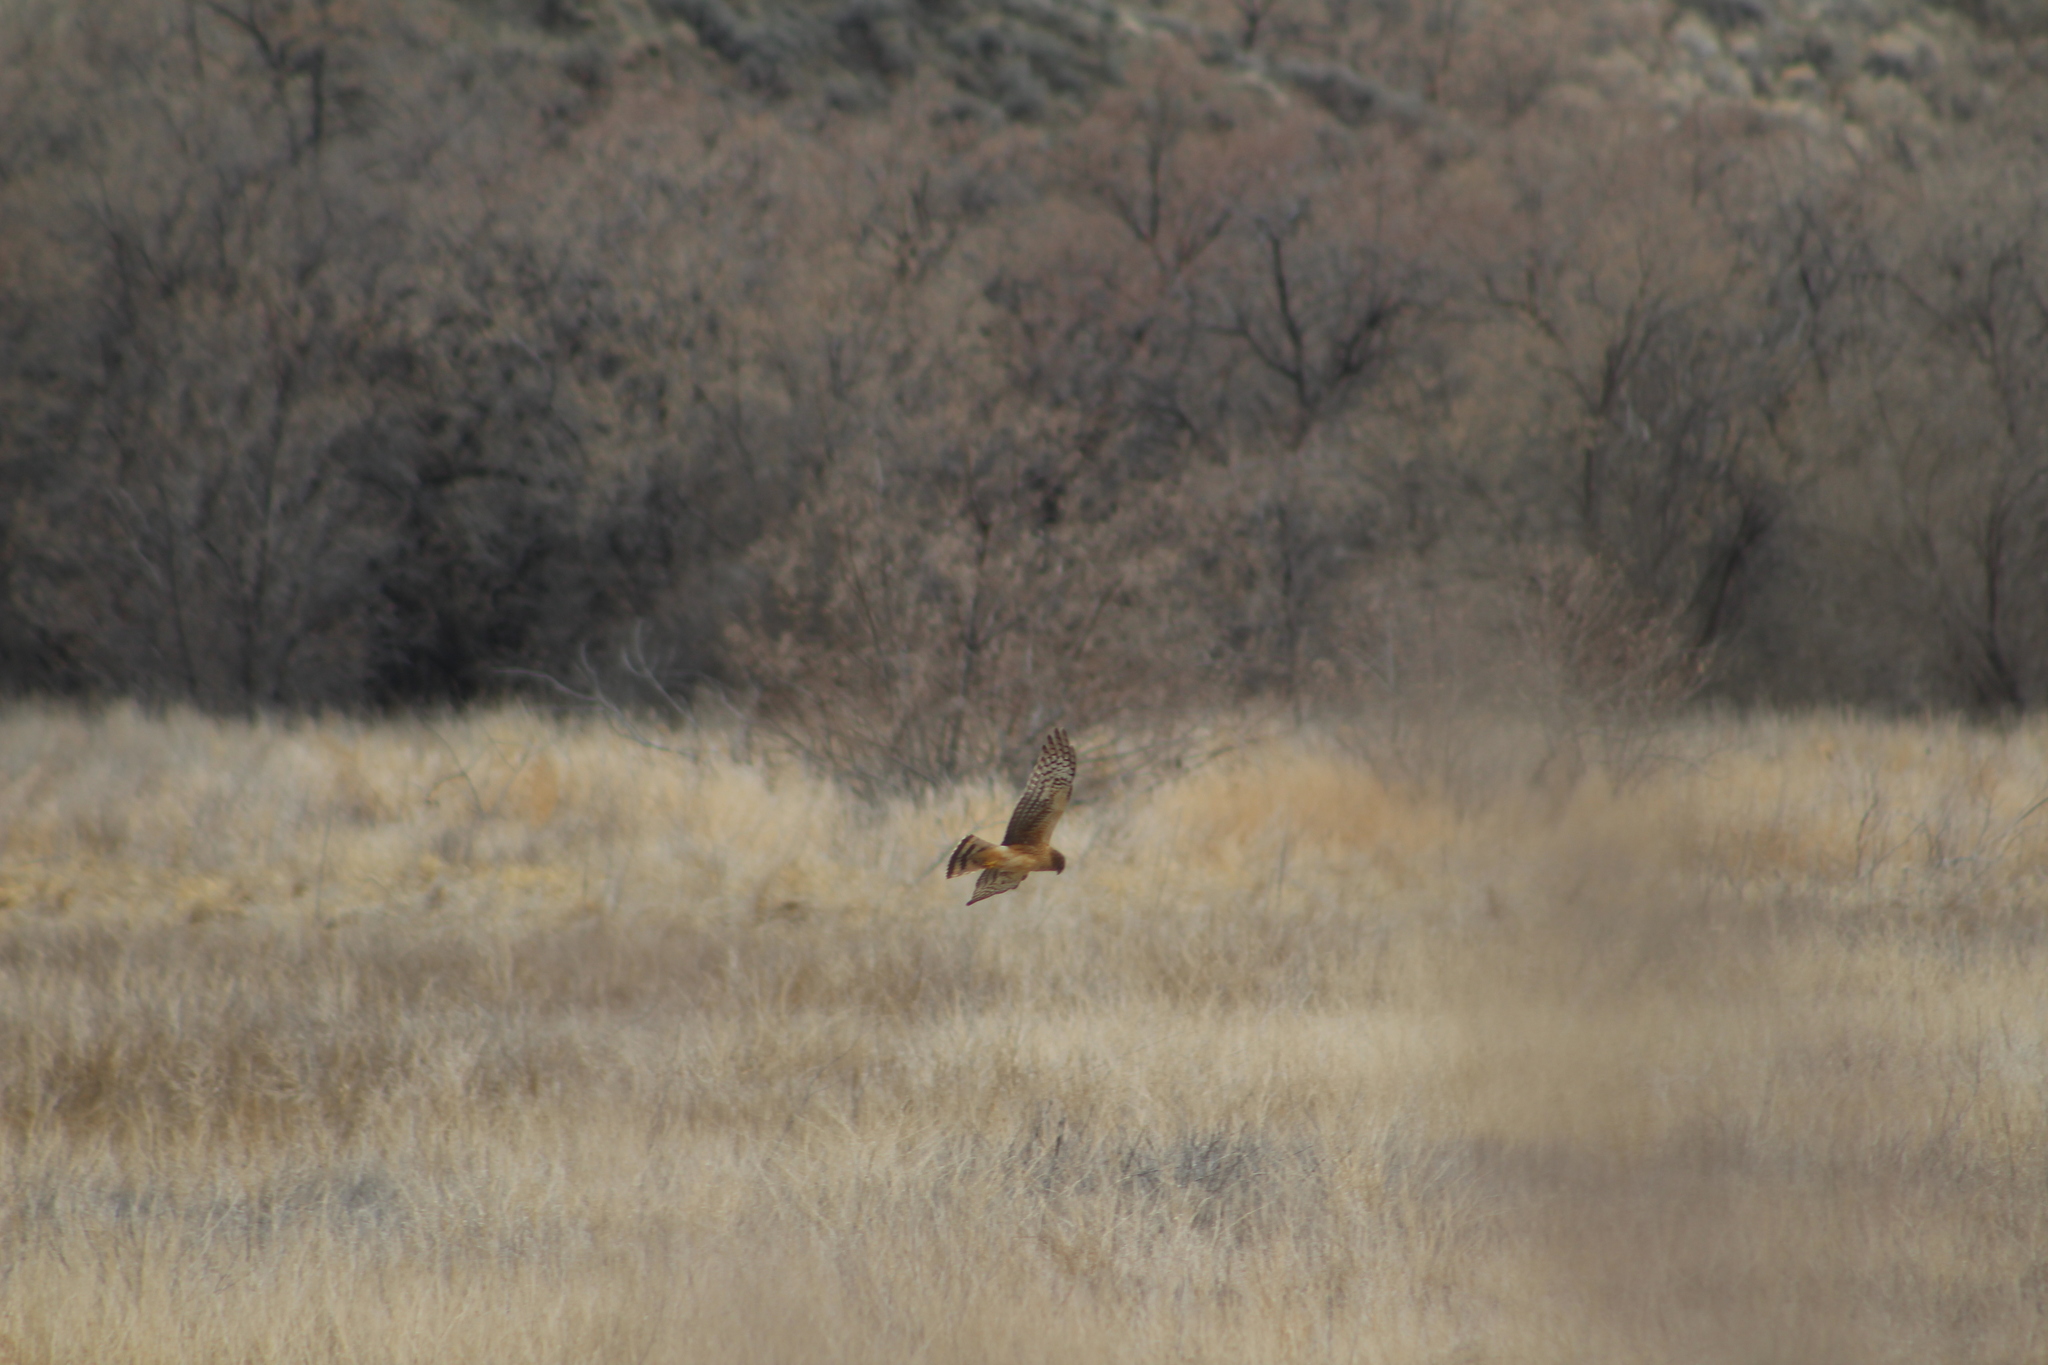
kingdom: Animalia
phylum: Chordata
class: Aves
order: Accipitriformes
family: Accipitridae
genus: Circus
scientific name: Circus cyaneus
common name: Hen harrier
